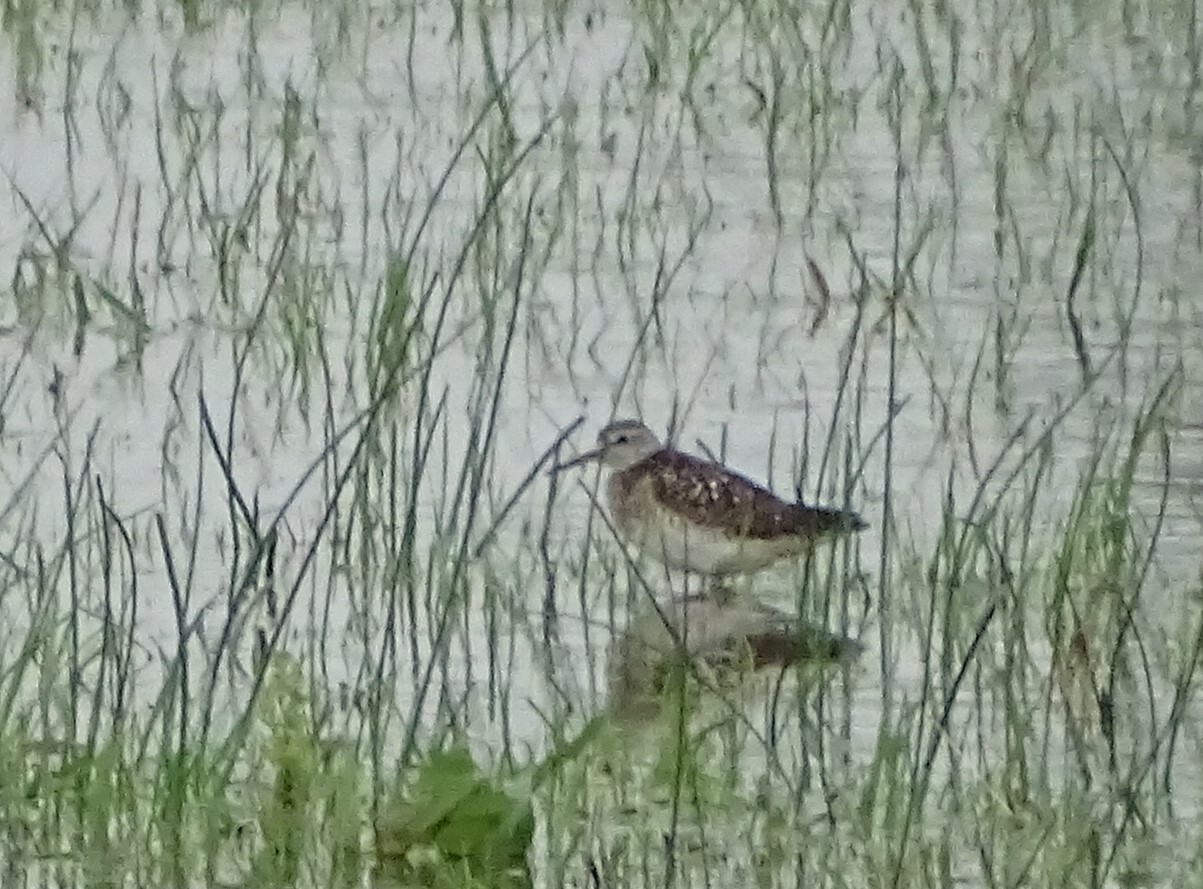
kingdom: Animalia
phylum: Chordata
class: Aves
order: Charadriiformes
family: Scolopacidae
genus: Tringa
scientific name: Tringa glareola
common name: Wood sandpiper
